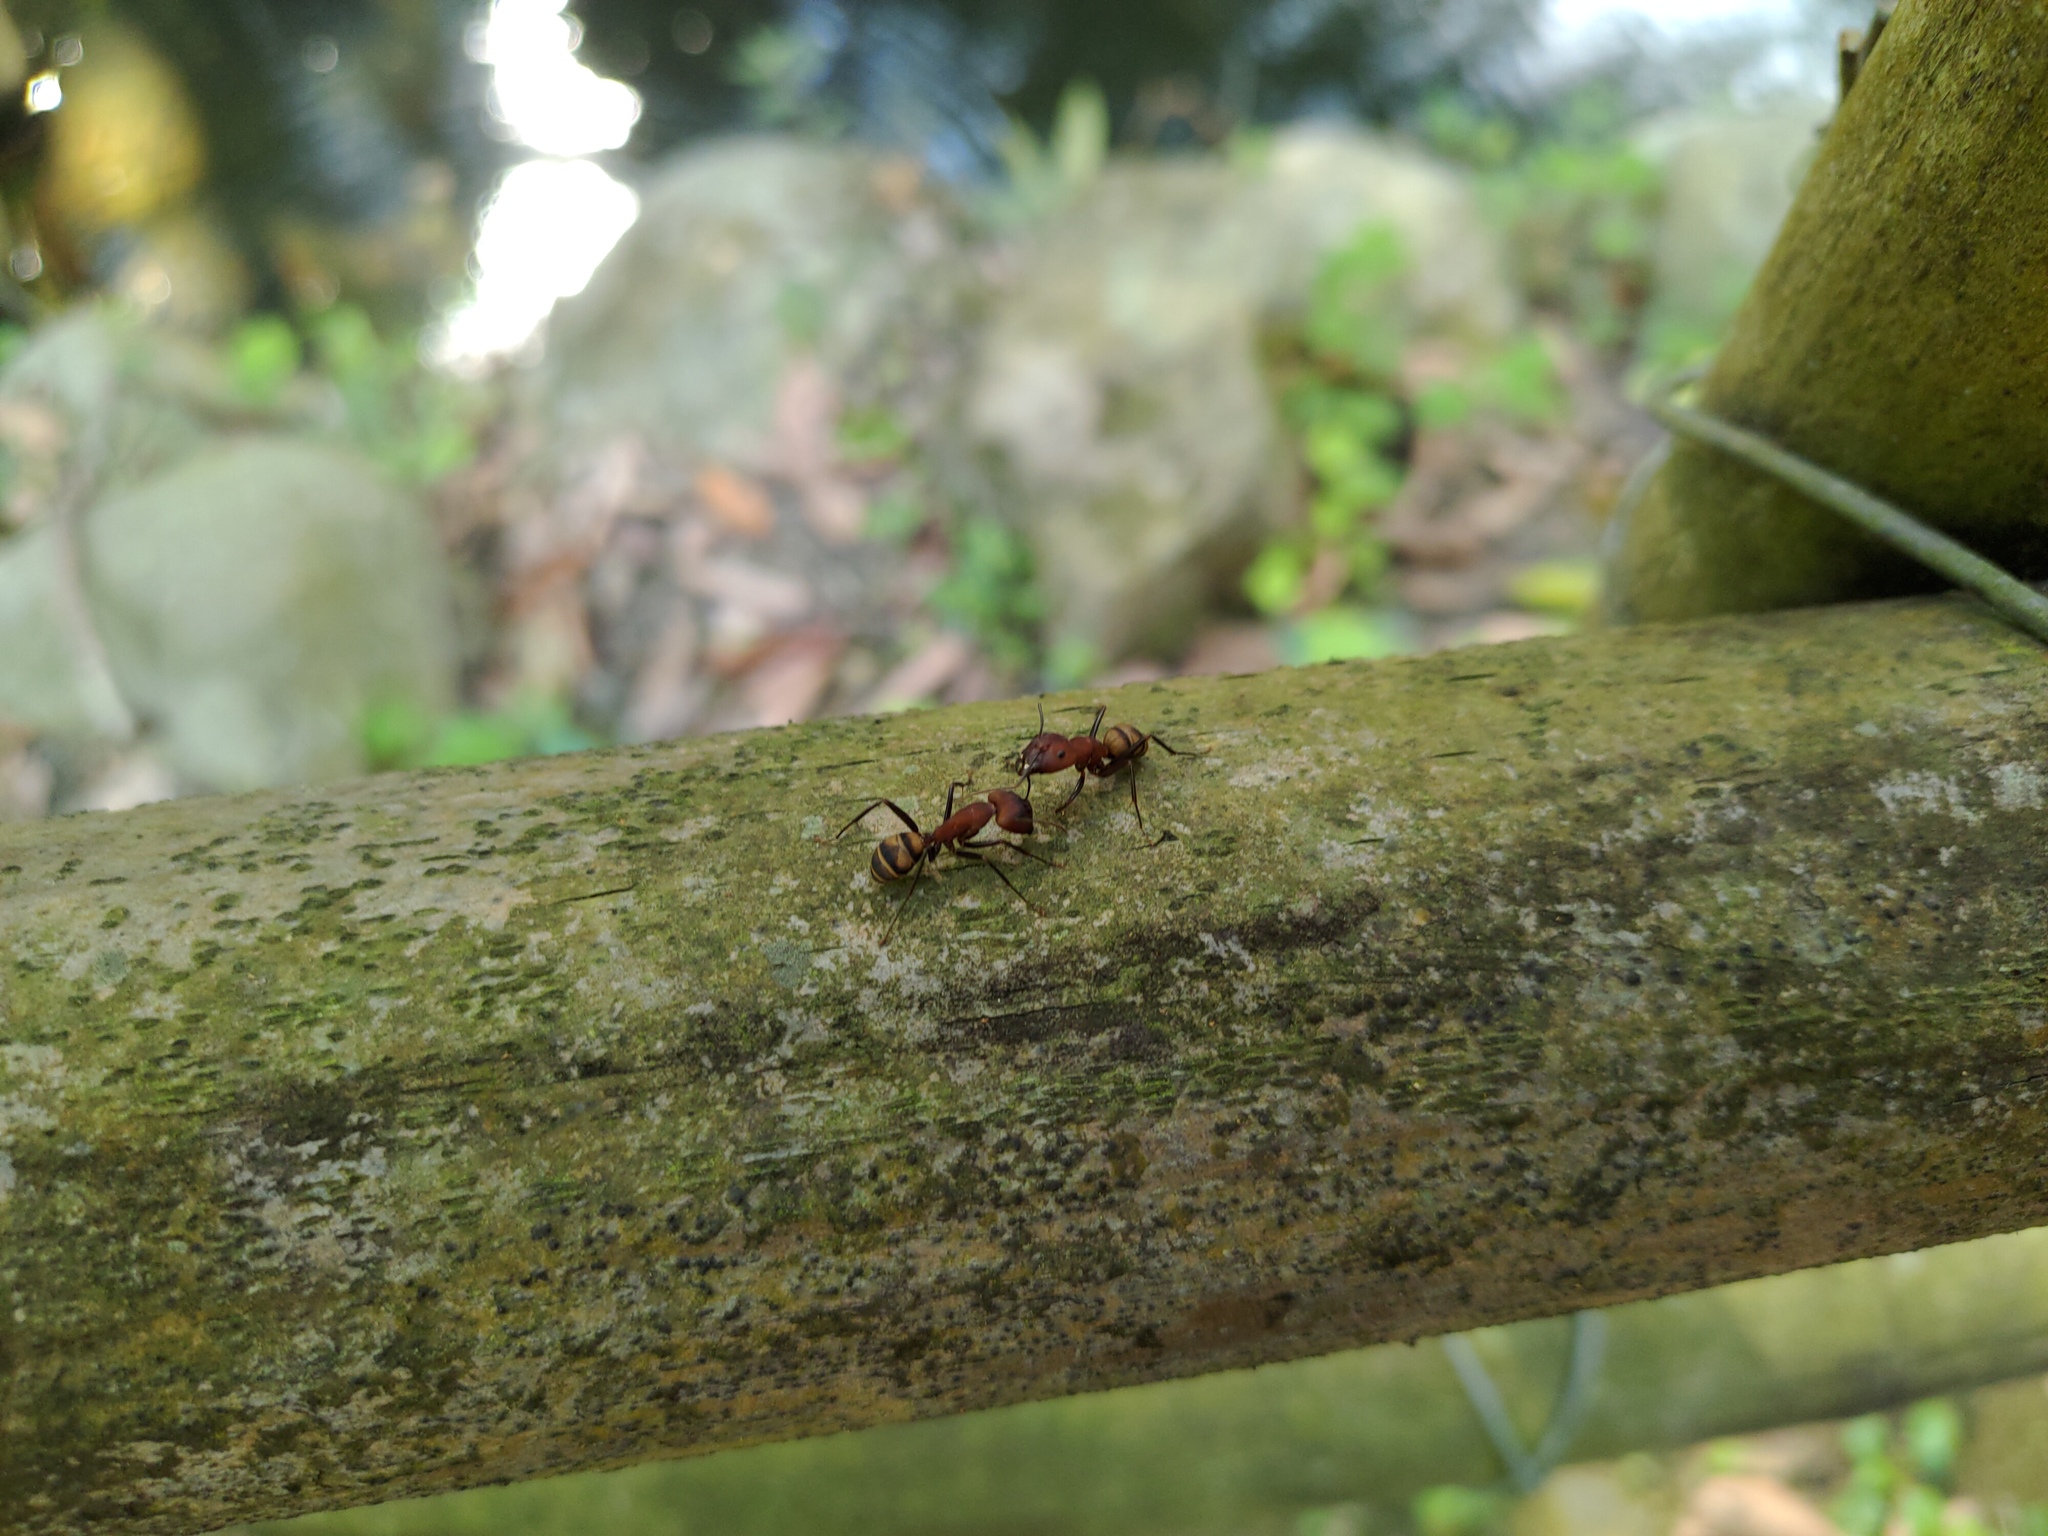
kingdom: Animalia
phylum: Arthropoda
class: Insecta
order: Hymenoptera
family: Formicidae
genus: Camponotus
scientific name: Camponotus habereri
